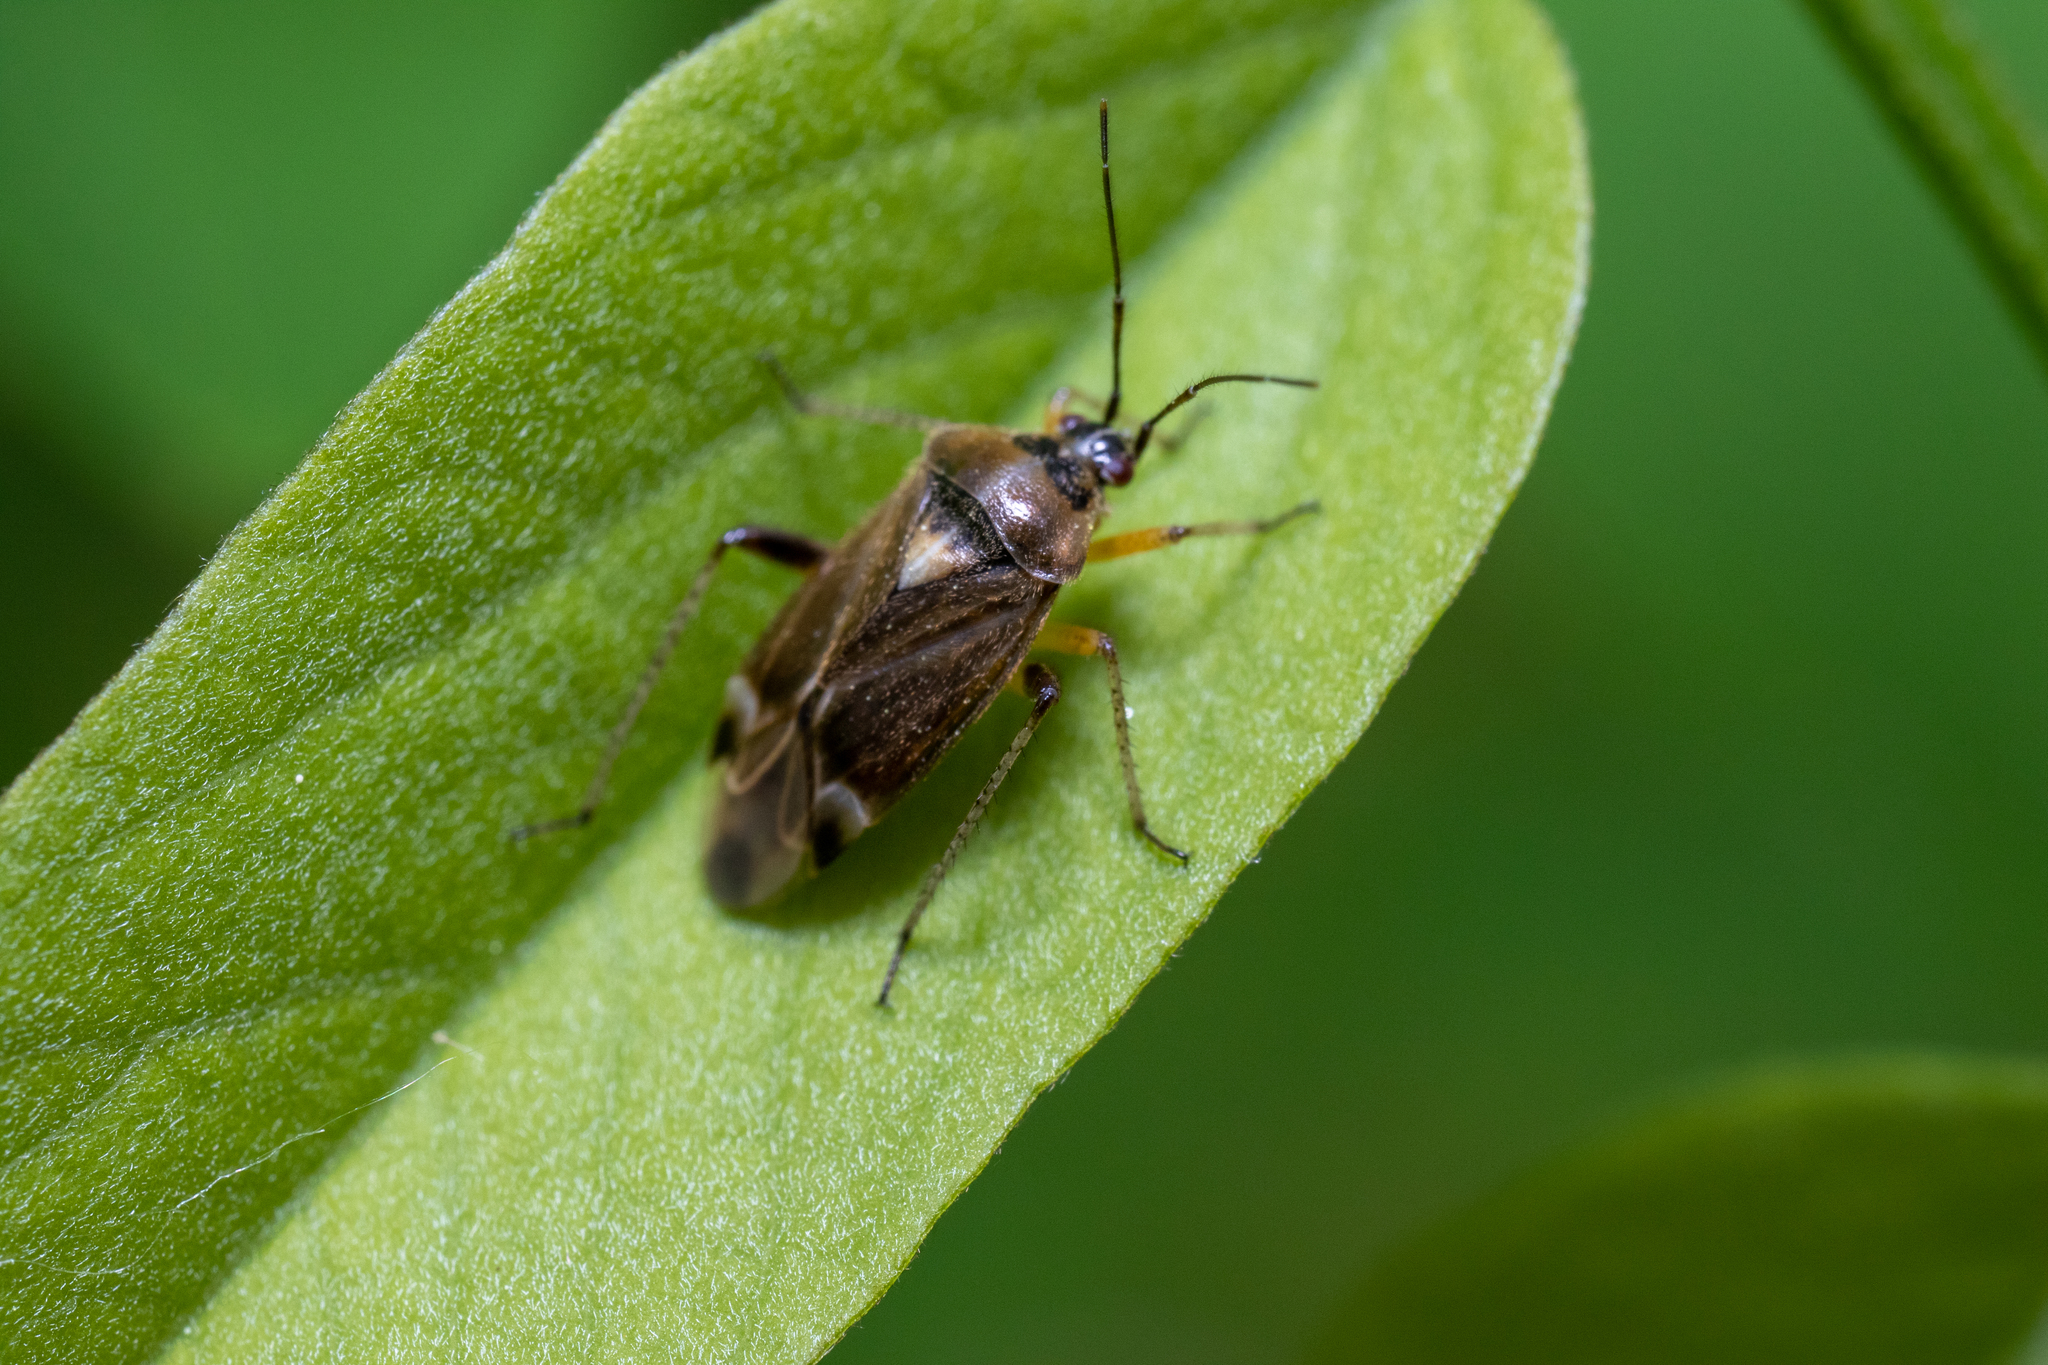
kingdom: Animalia
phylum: Arthropoda
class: Insecta
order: Hemiptera
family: Miridae
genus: Harpocera
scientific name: Harpocera thoracica
